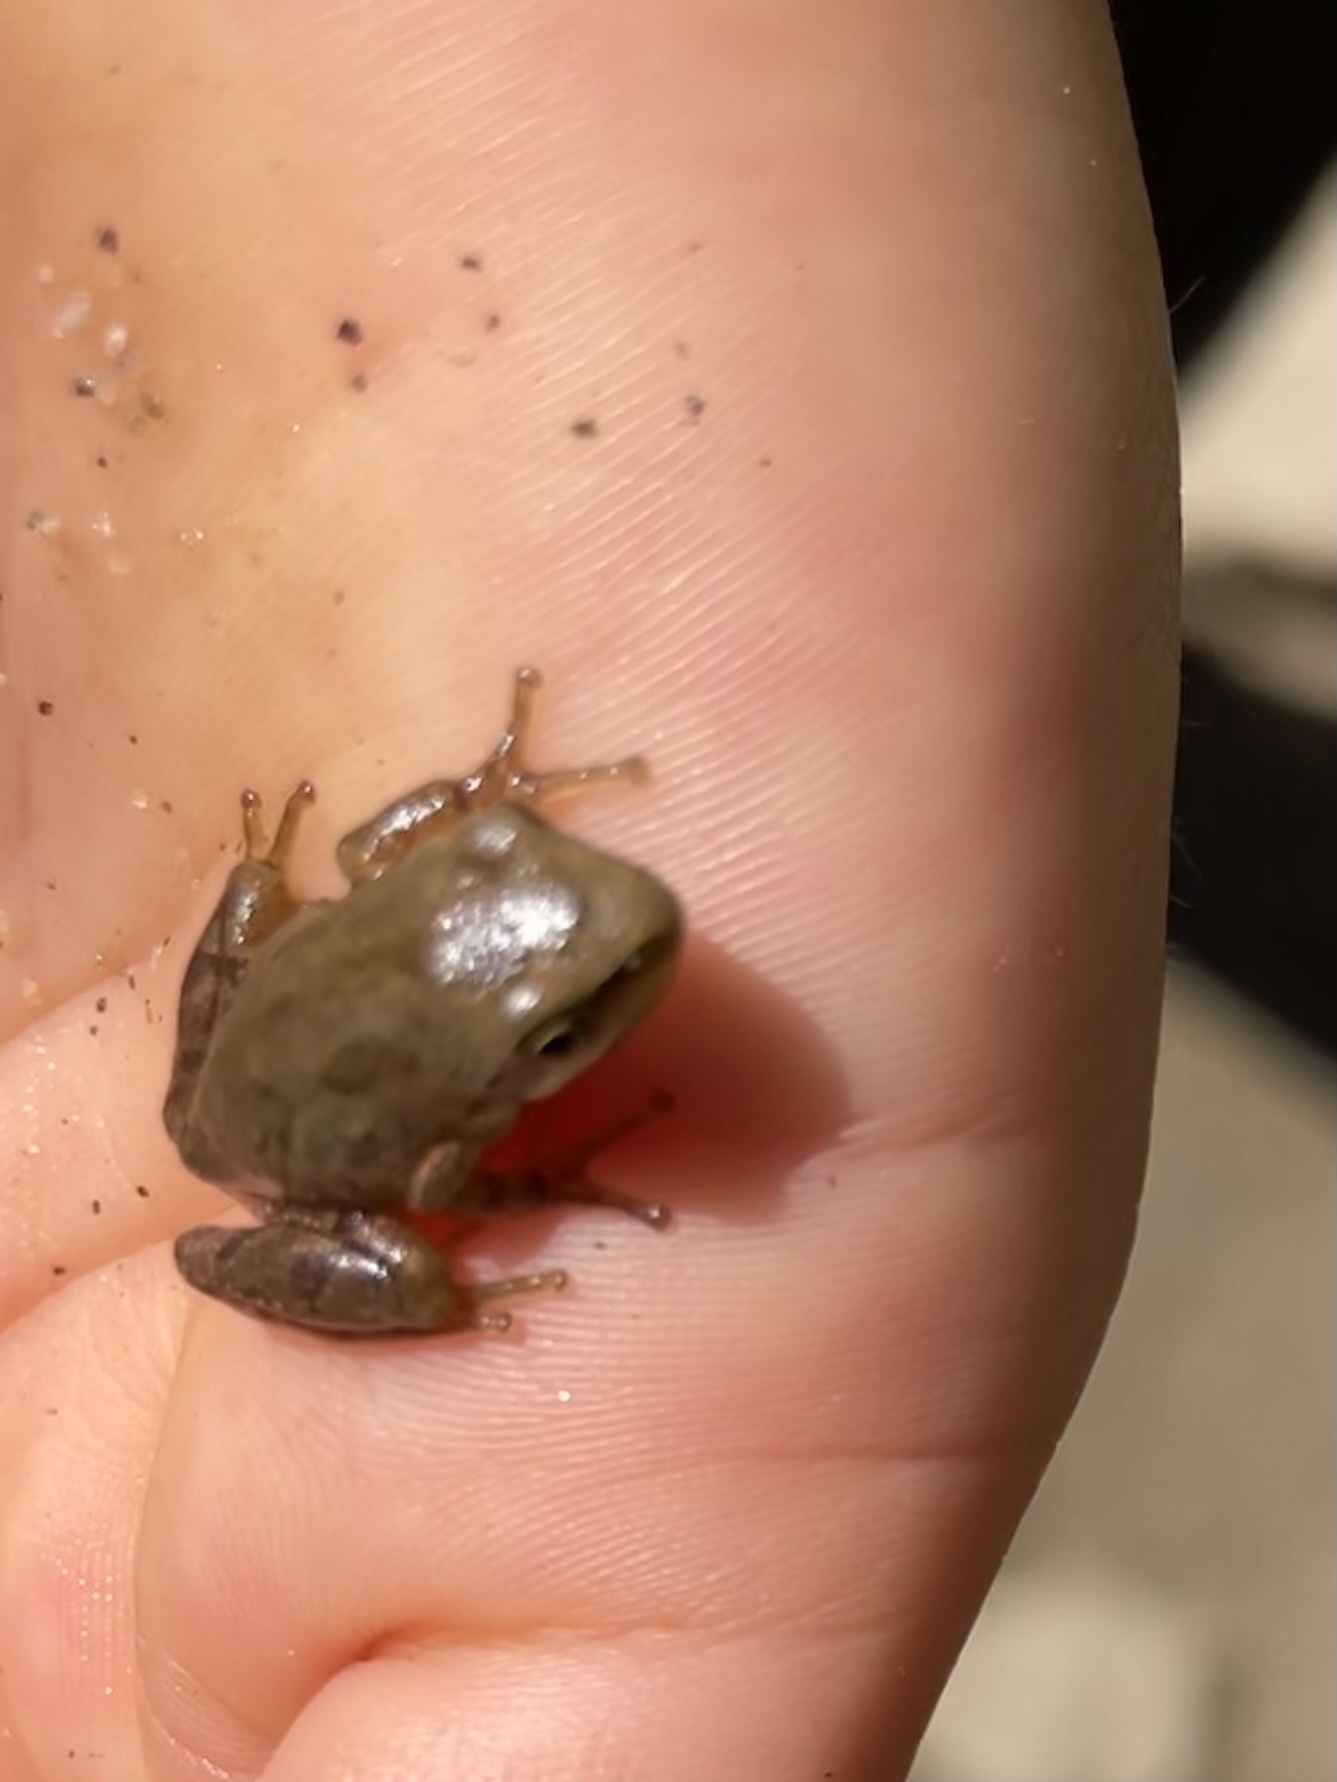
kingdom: Animalia
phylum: Chordata
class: Amphibia
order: Anura
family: Hylidae
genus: Pseudacris
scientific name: Pseudacris regilla
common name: Pacific chorus frog
